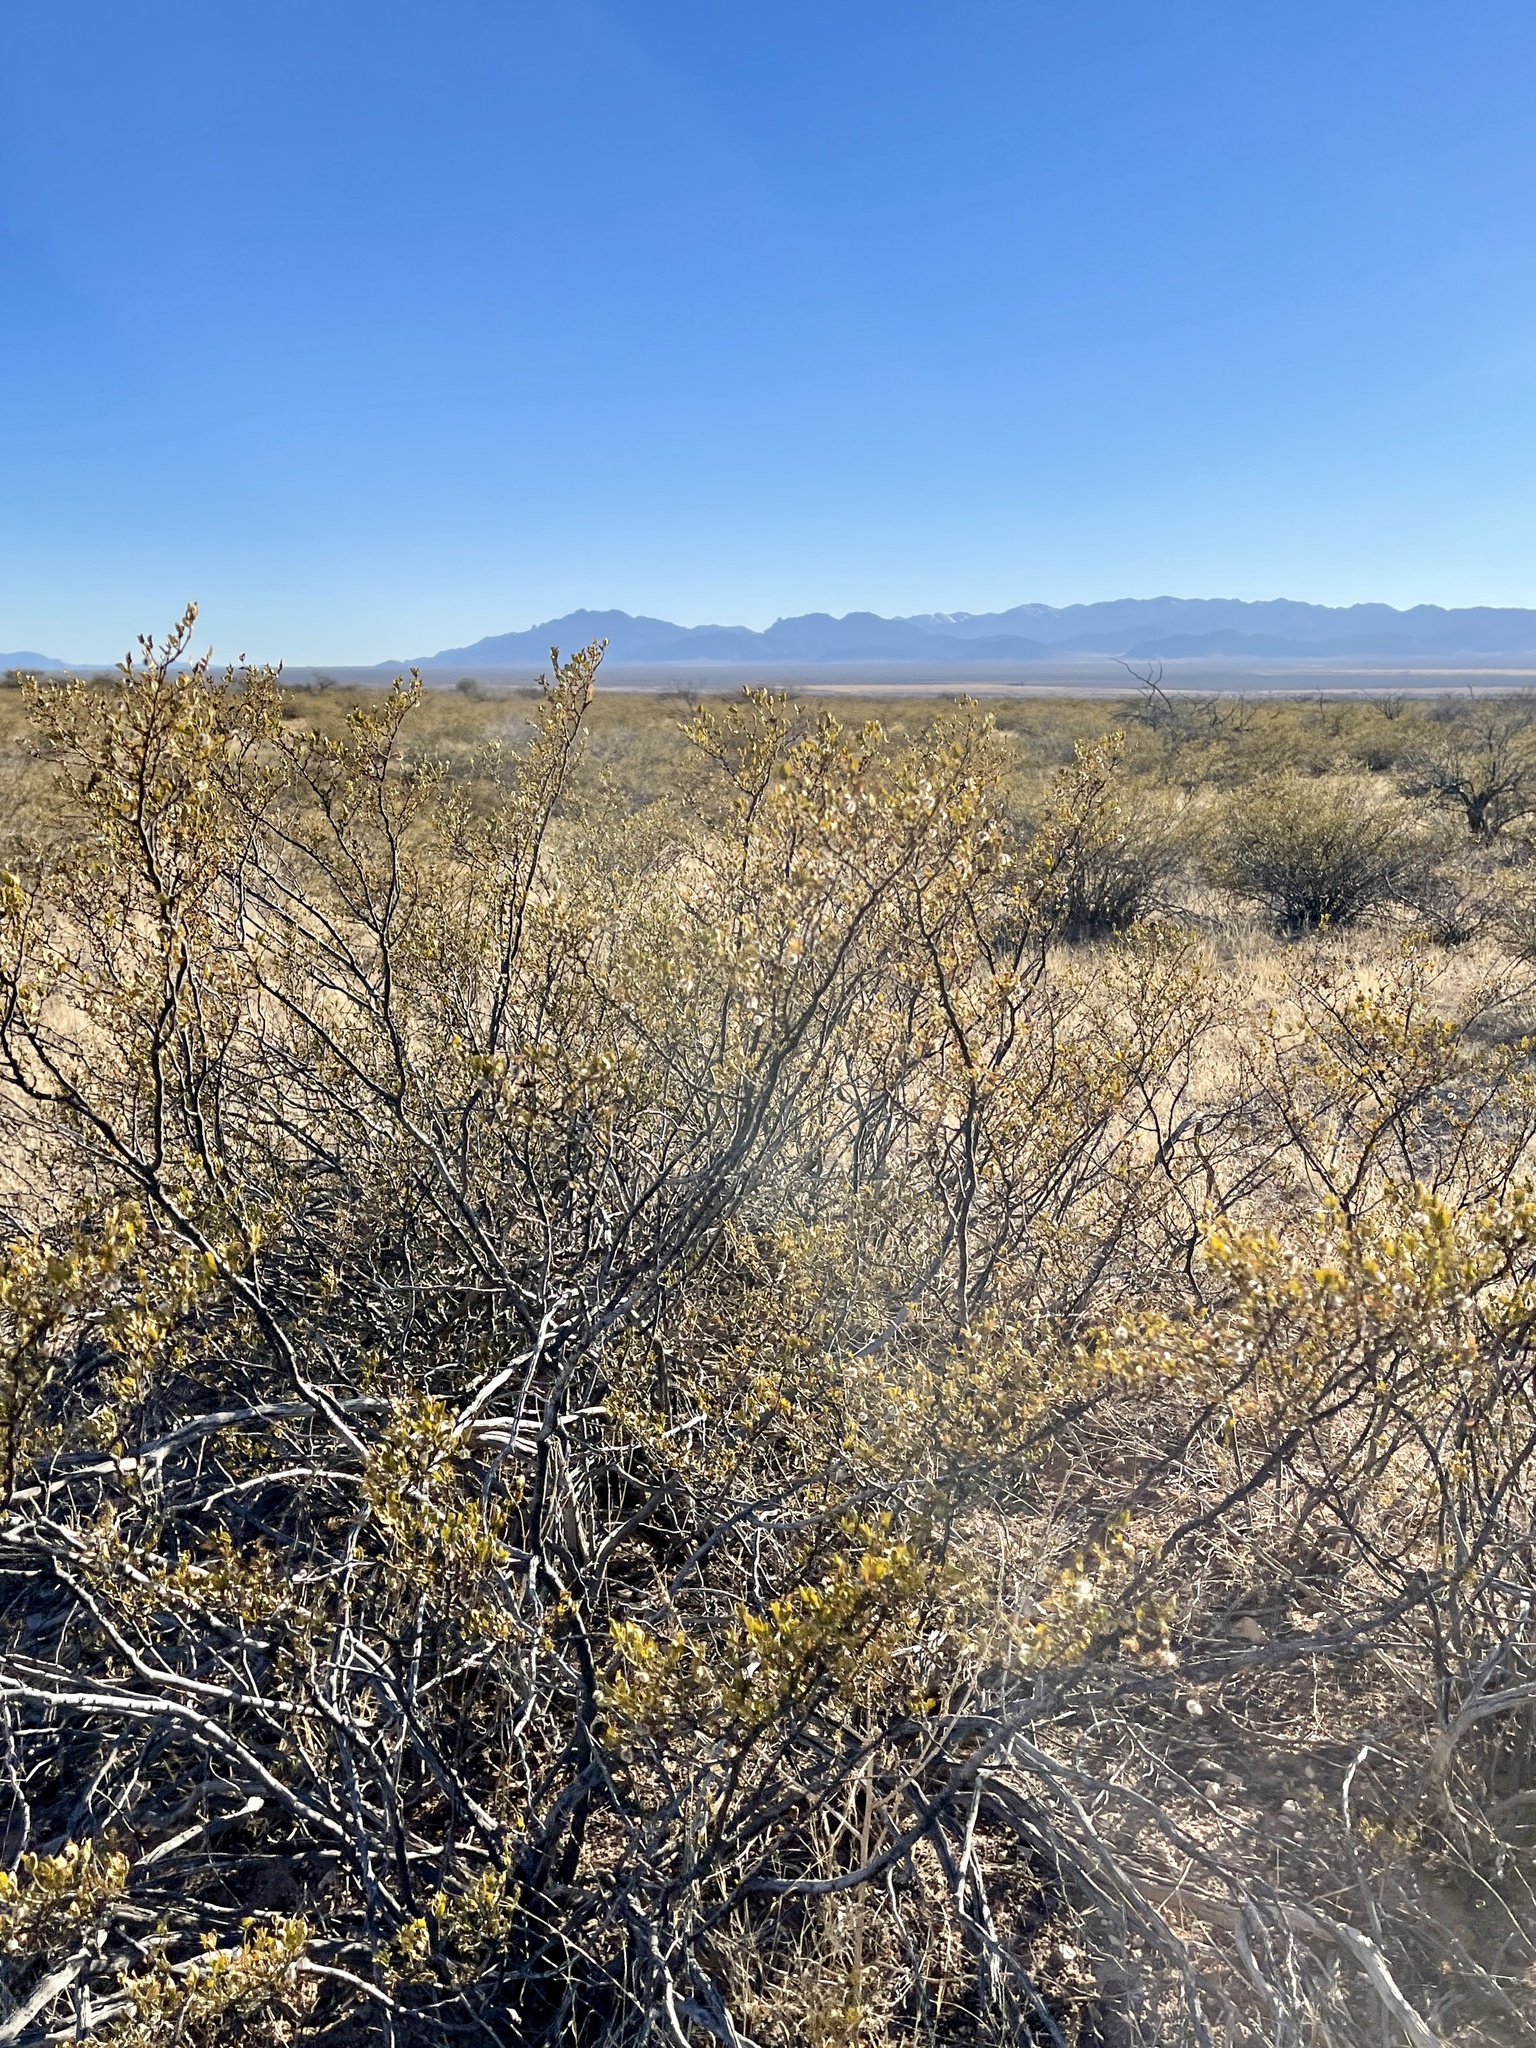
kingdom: Plantae
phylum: Tracheophyta
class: Magnoliopsida
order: Zygophyllales
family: Zygophyllaceae
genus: Larrea
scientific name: Larrea tridentata
